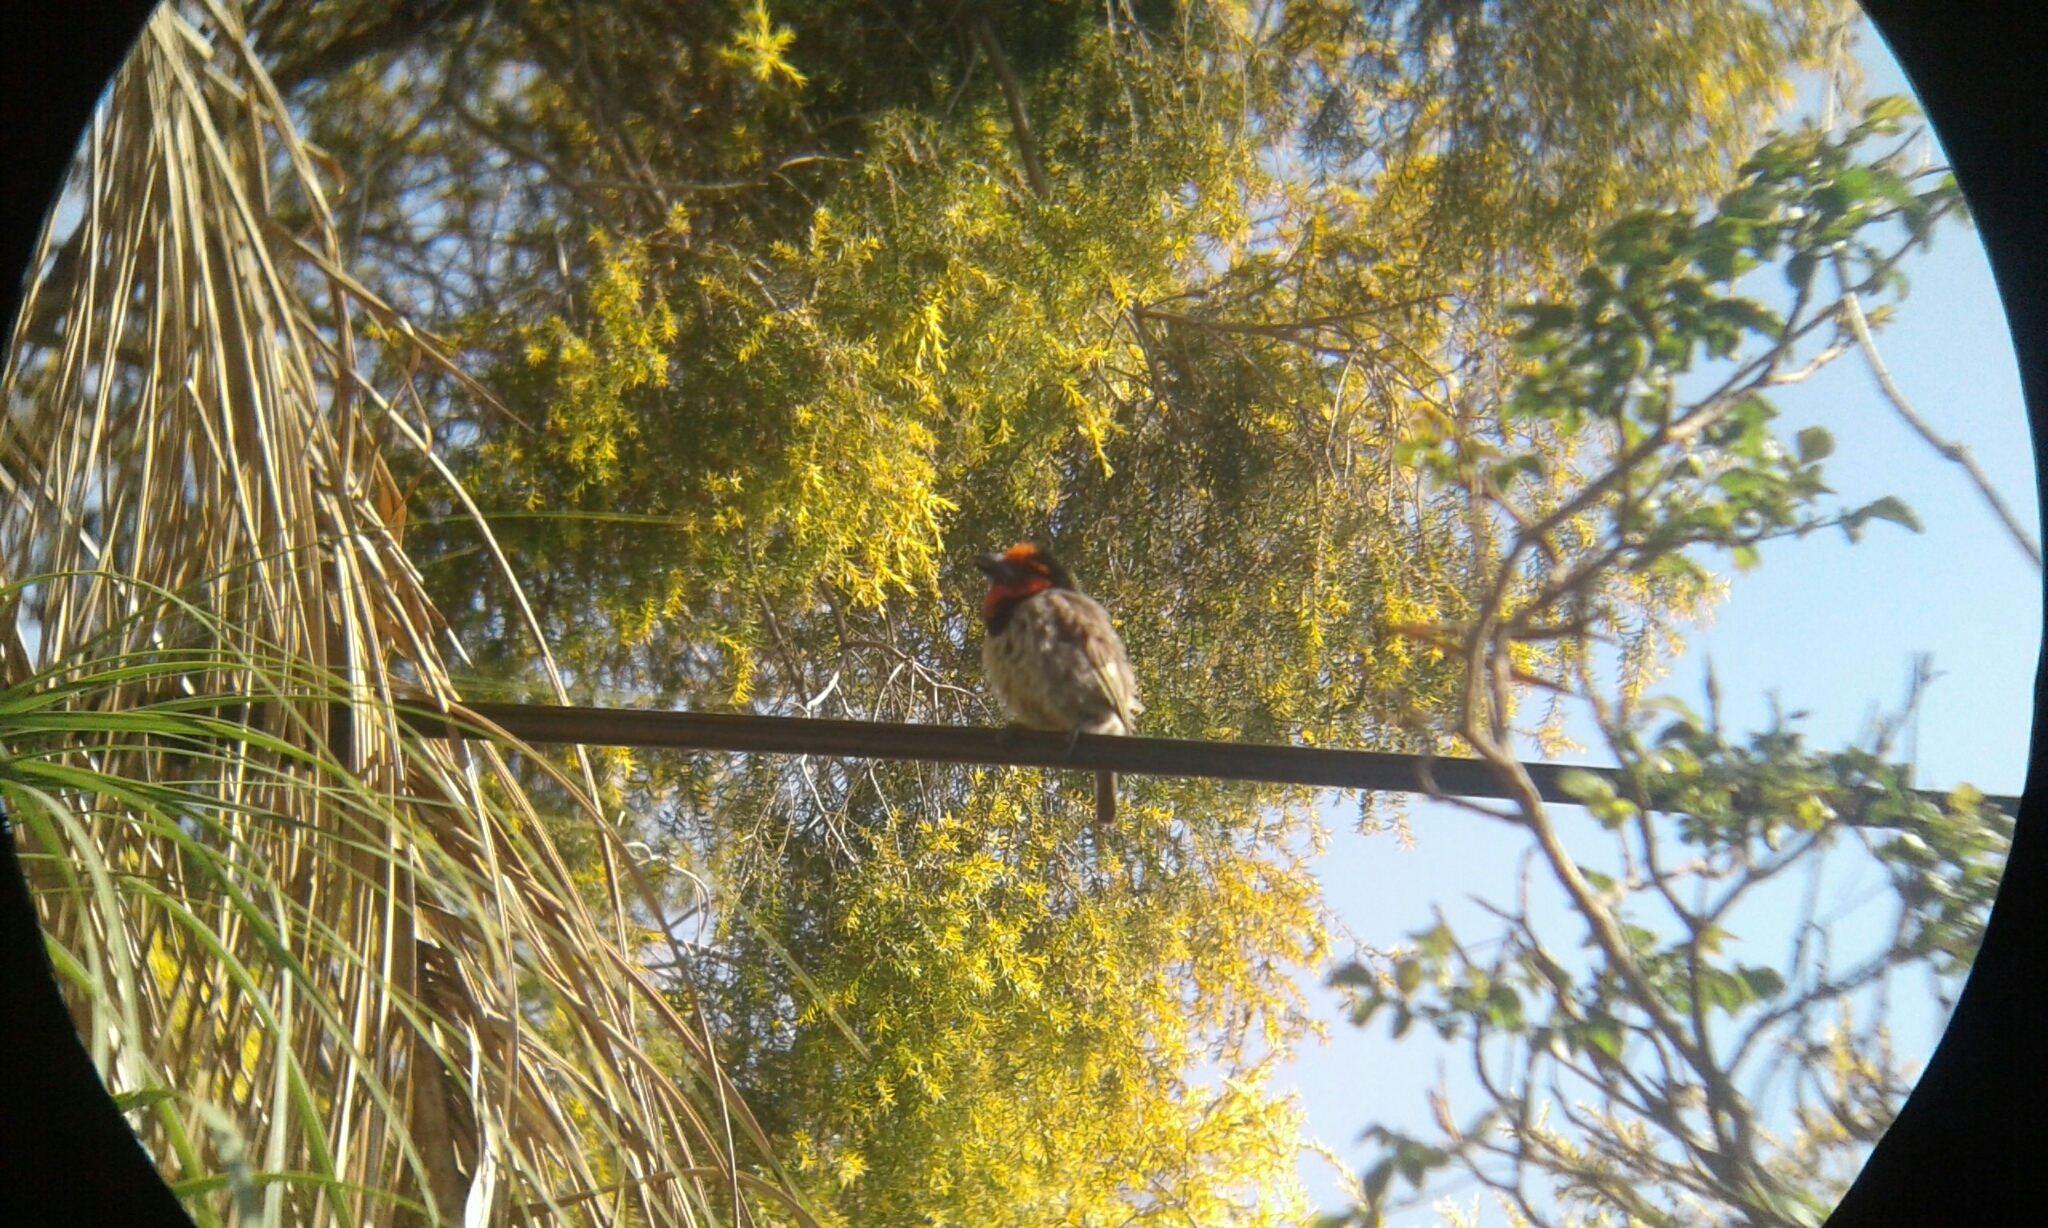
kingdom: Animalia
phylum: Chordata
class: Aves
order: Piciformes
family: Lybiidae
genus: Lybius
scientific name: Lybius torquatus
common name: Black-collared barbet
